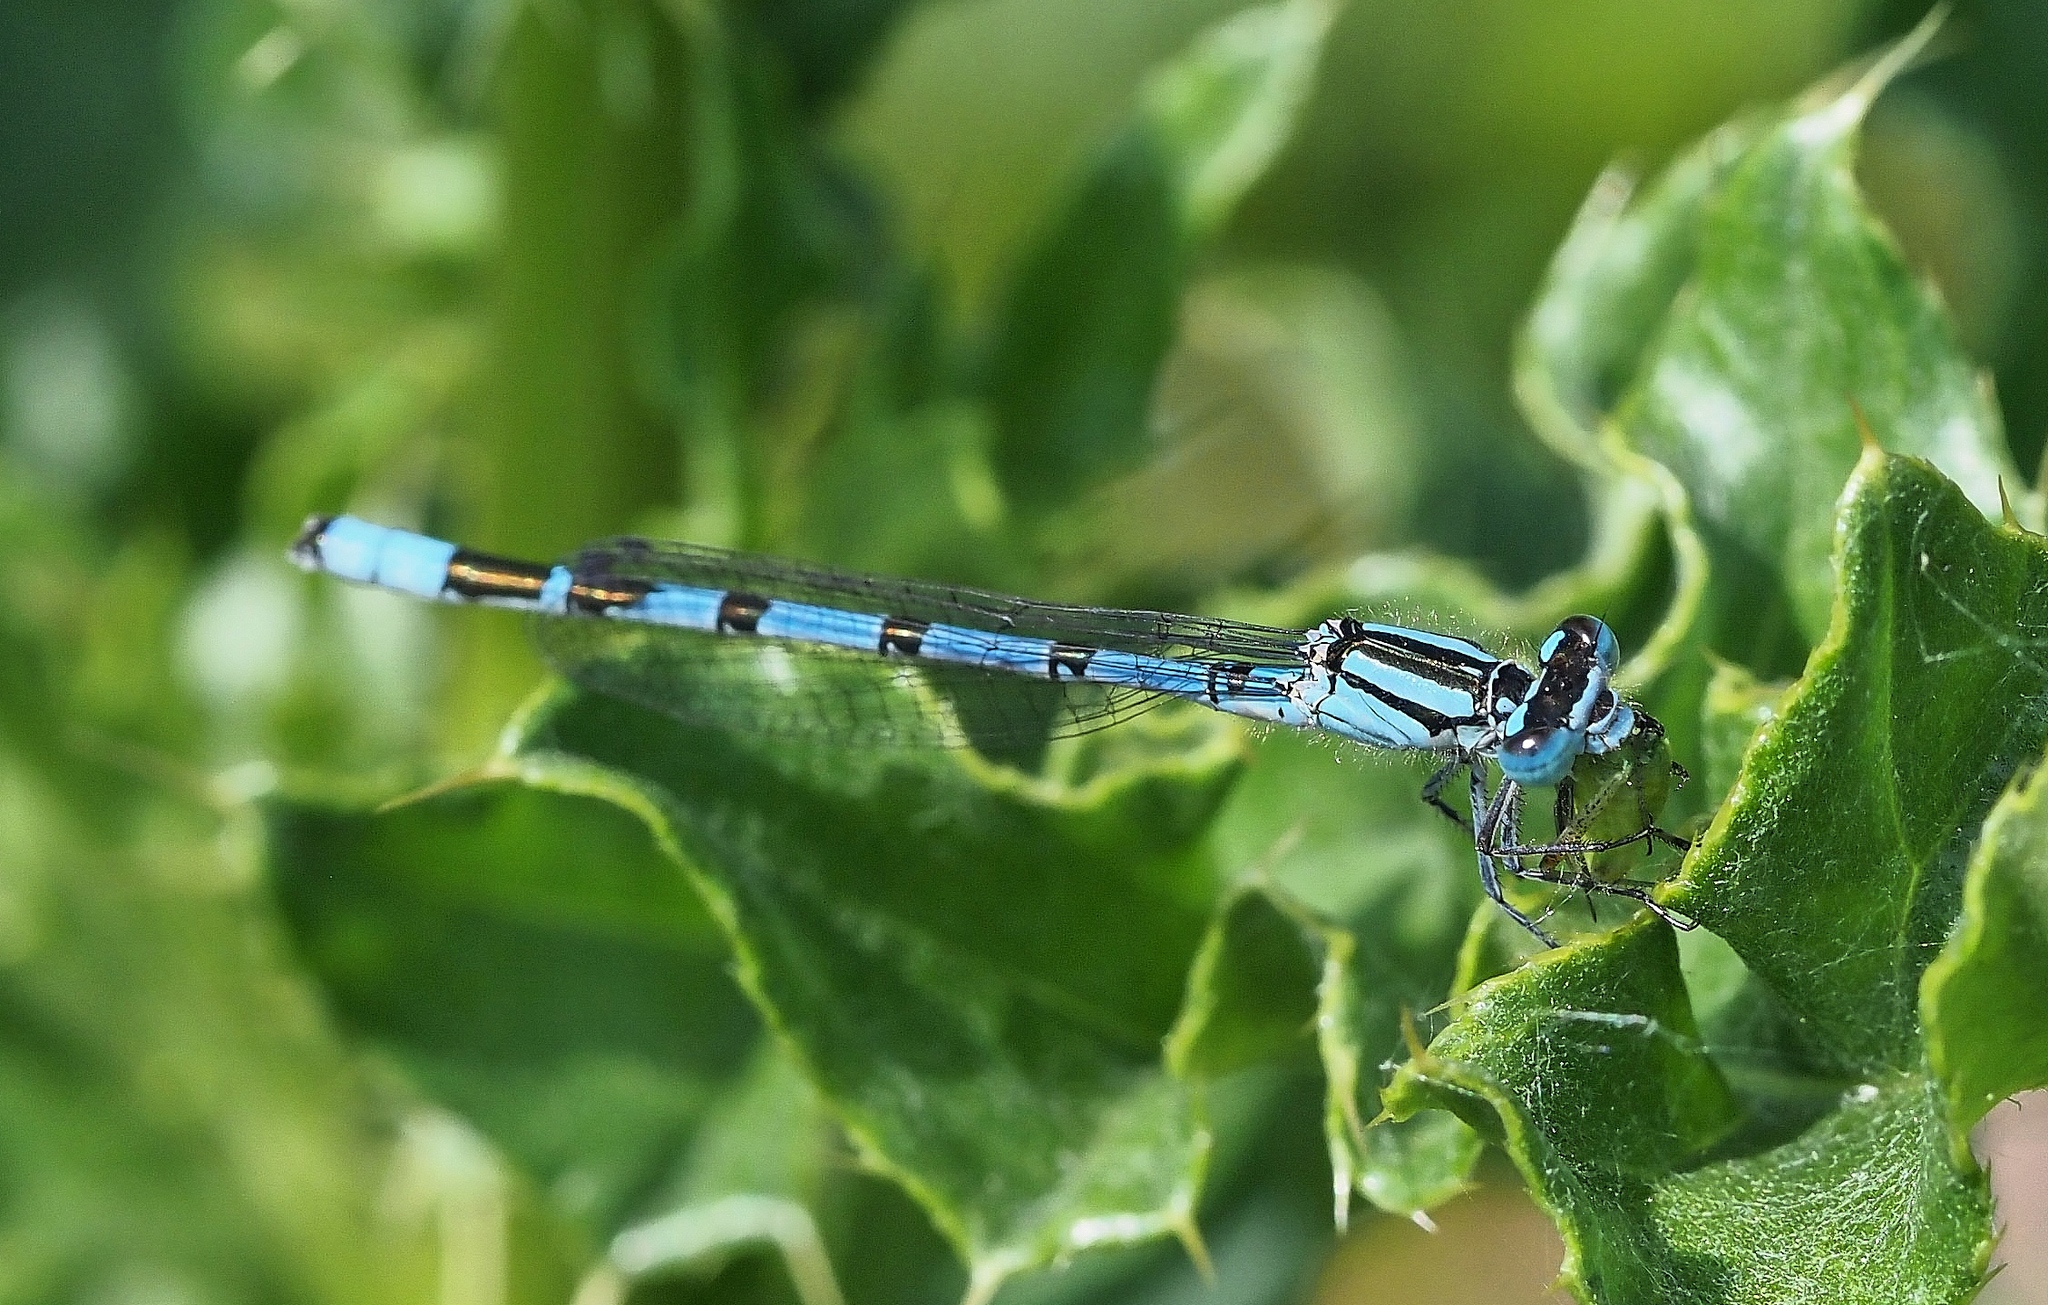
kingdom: Animalia
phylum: Arthropoda
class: Insecta
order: Odonata
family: Coenagrionidae
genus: Enallagma
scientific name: Enallagma cyathigerum
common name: Common blue damselfly
